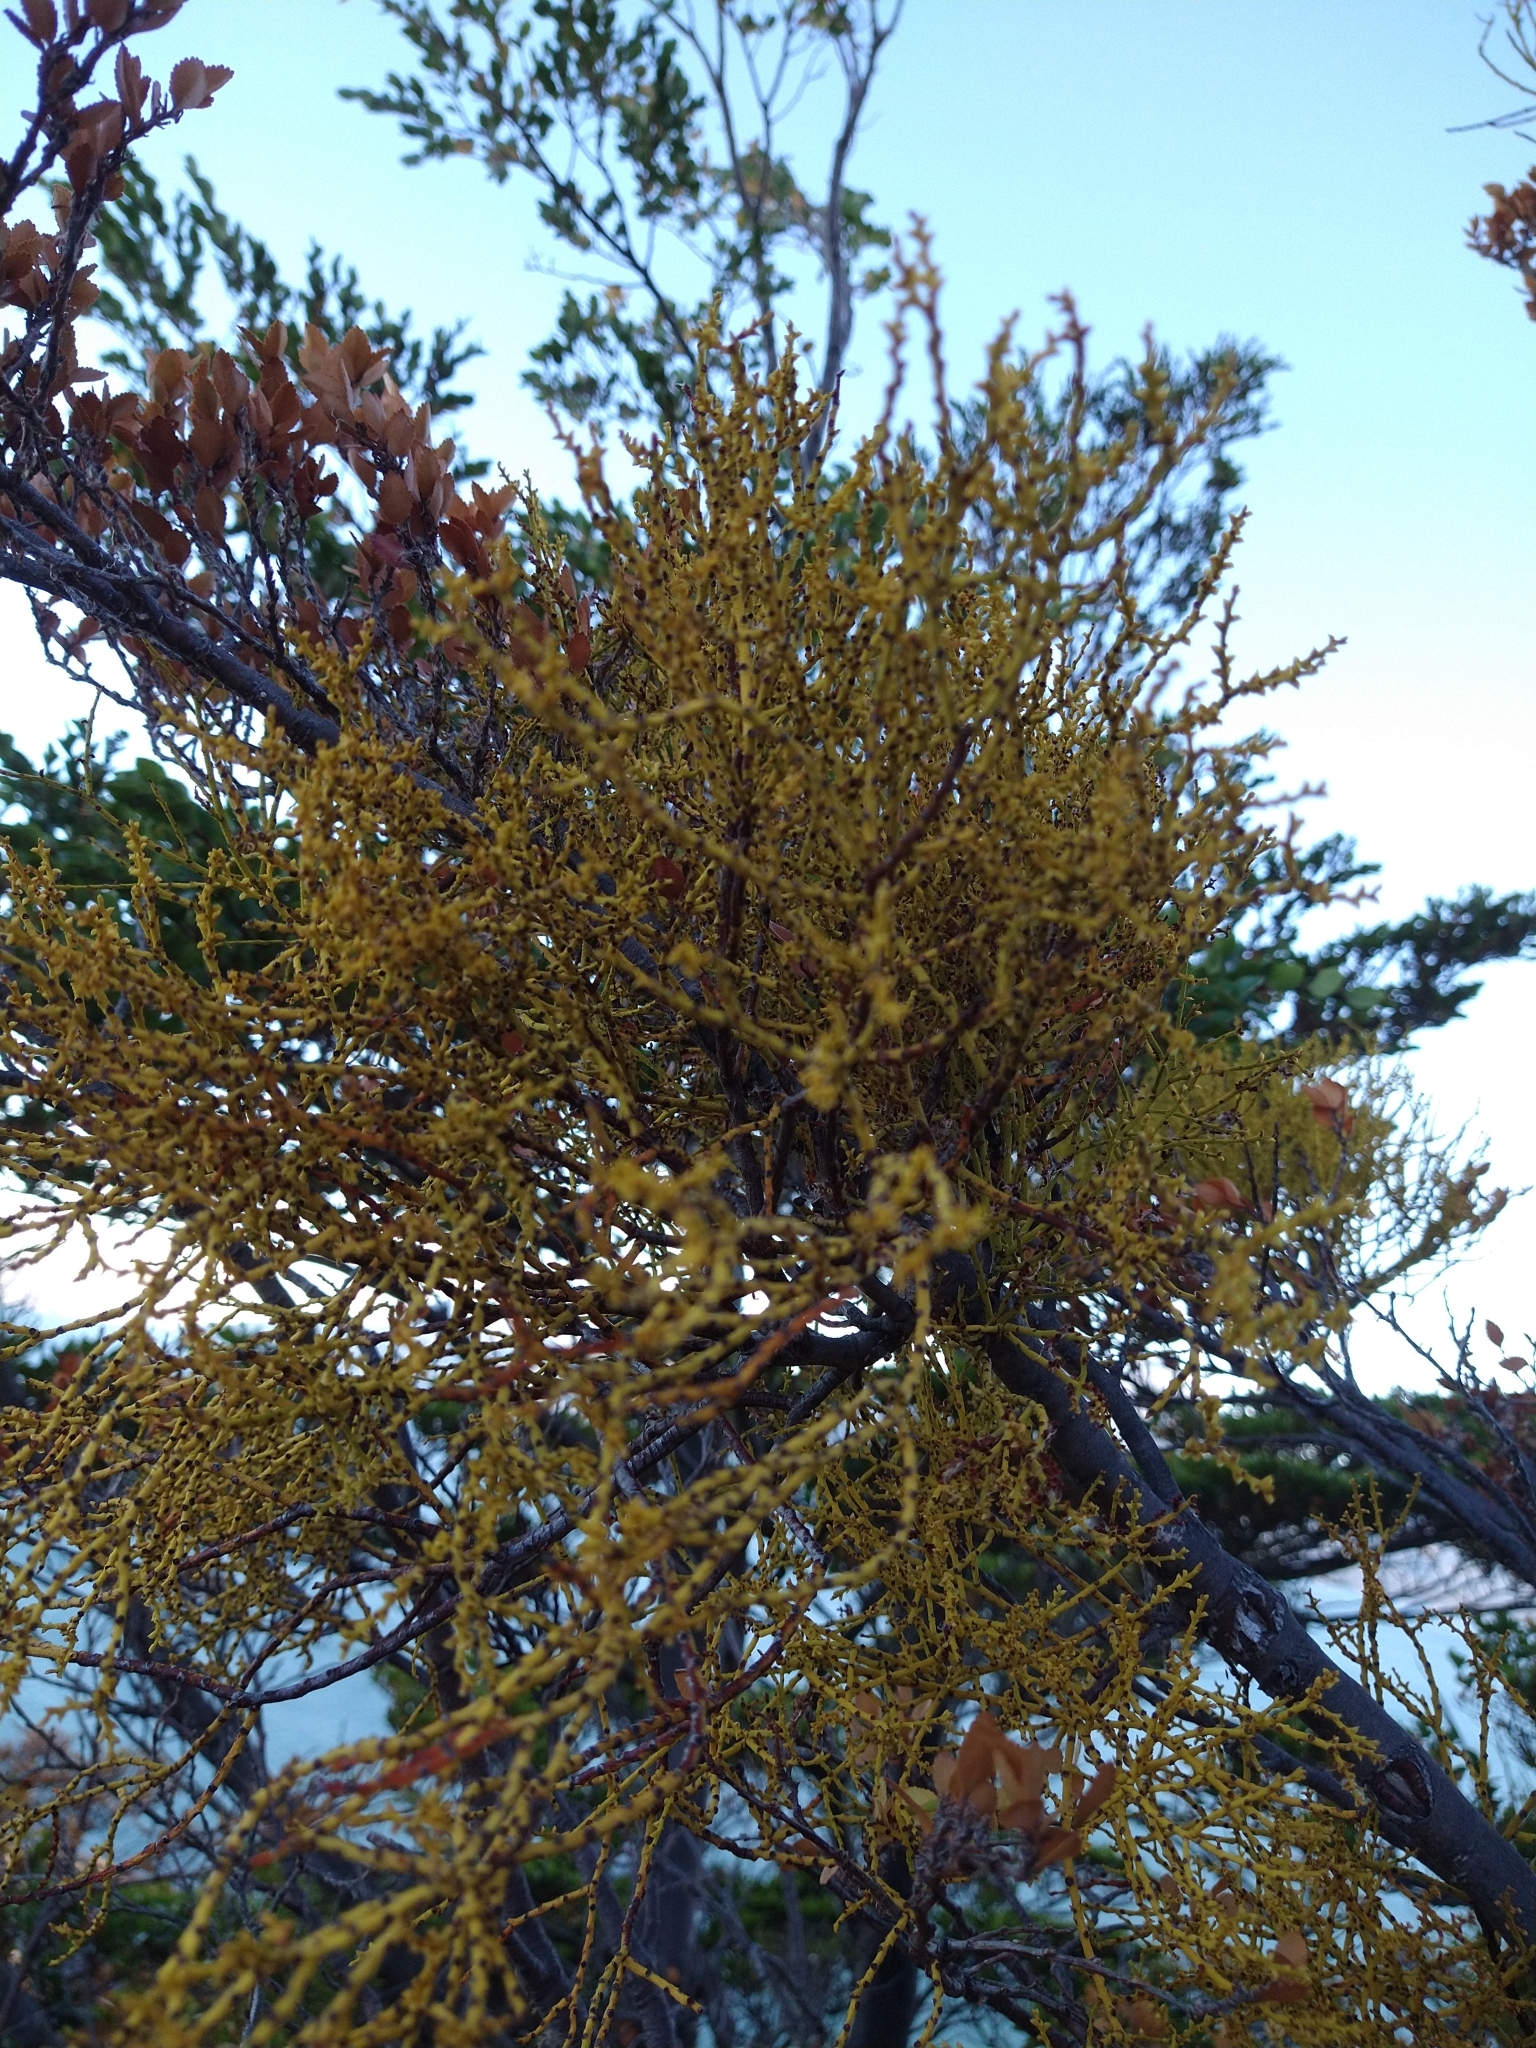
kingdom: Plantae
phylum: Tracheophyta
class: Magnoliopsida
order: Santalales
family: Misodendraceae
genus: Misodendrum
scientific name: Misodendrum punctulatum
